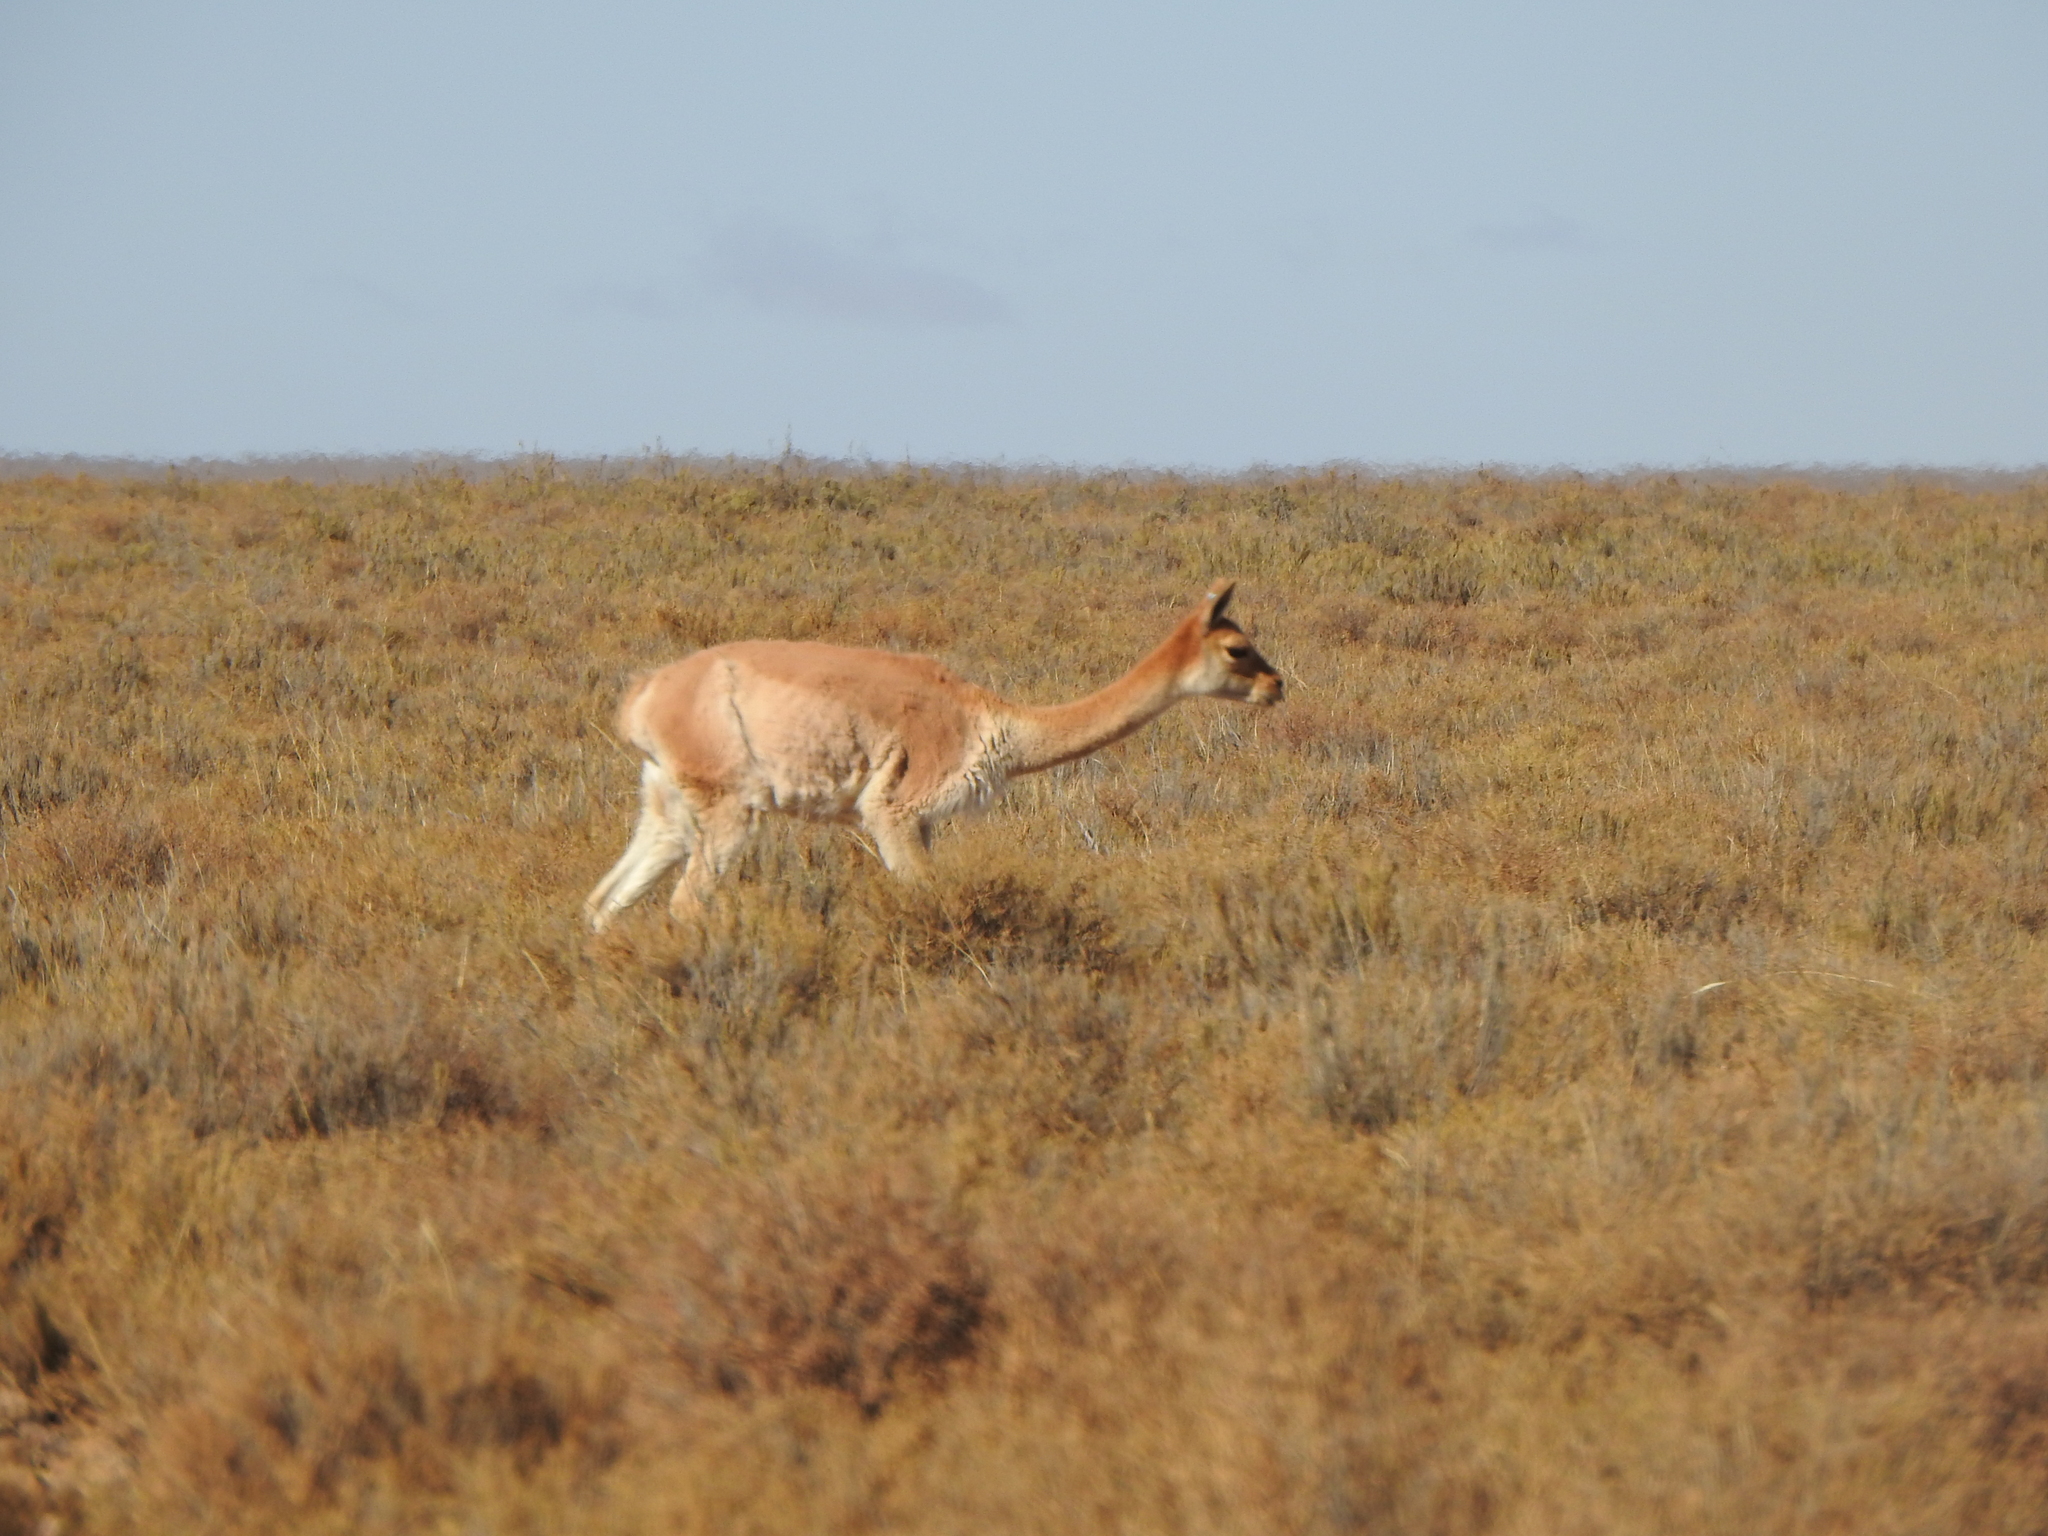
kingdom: Animalia
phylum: Chordata
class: Mammalia
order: Artiodactyla
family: Camelidae
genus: Vicugna
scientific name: Vicugna vicugna
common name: Vicugna
